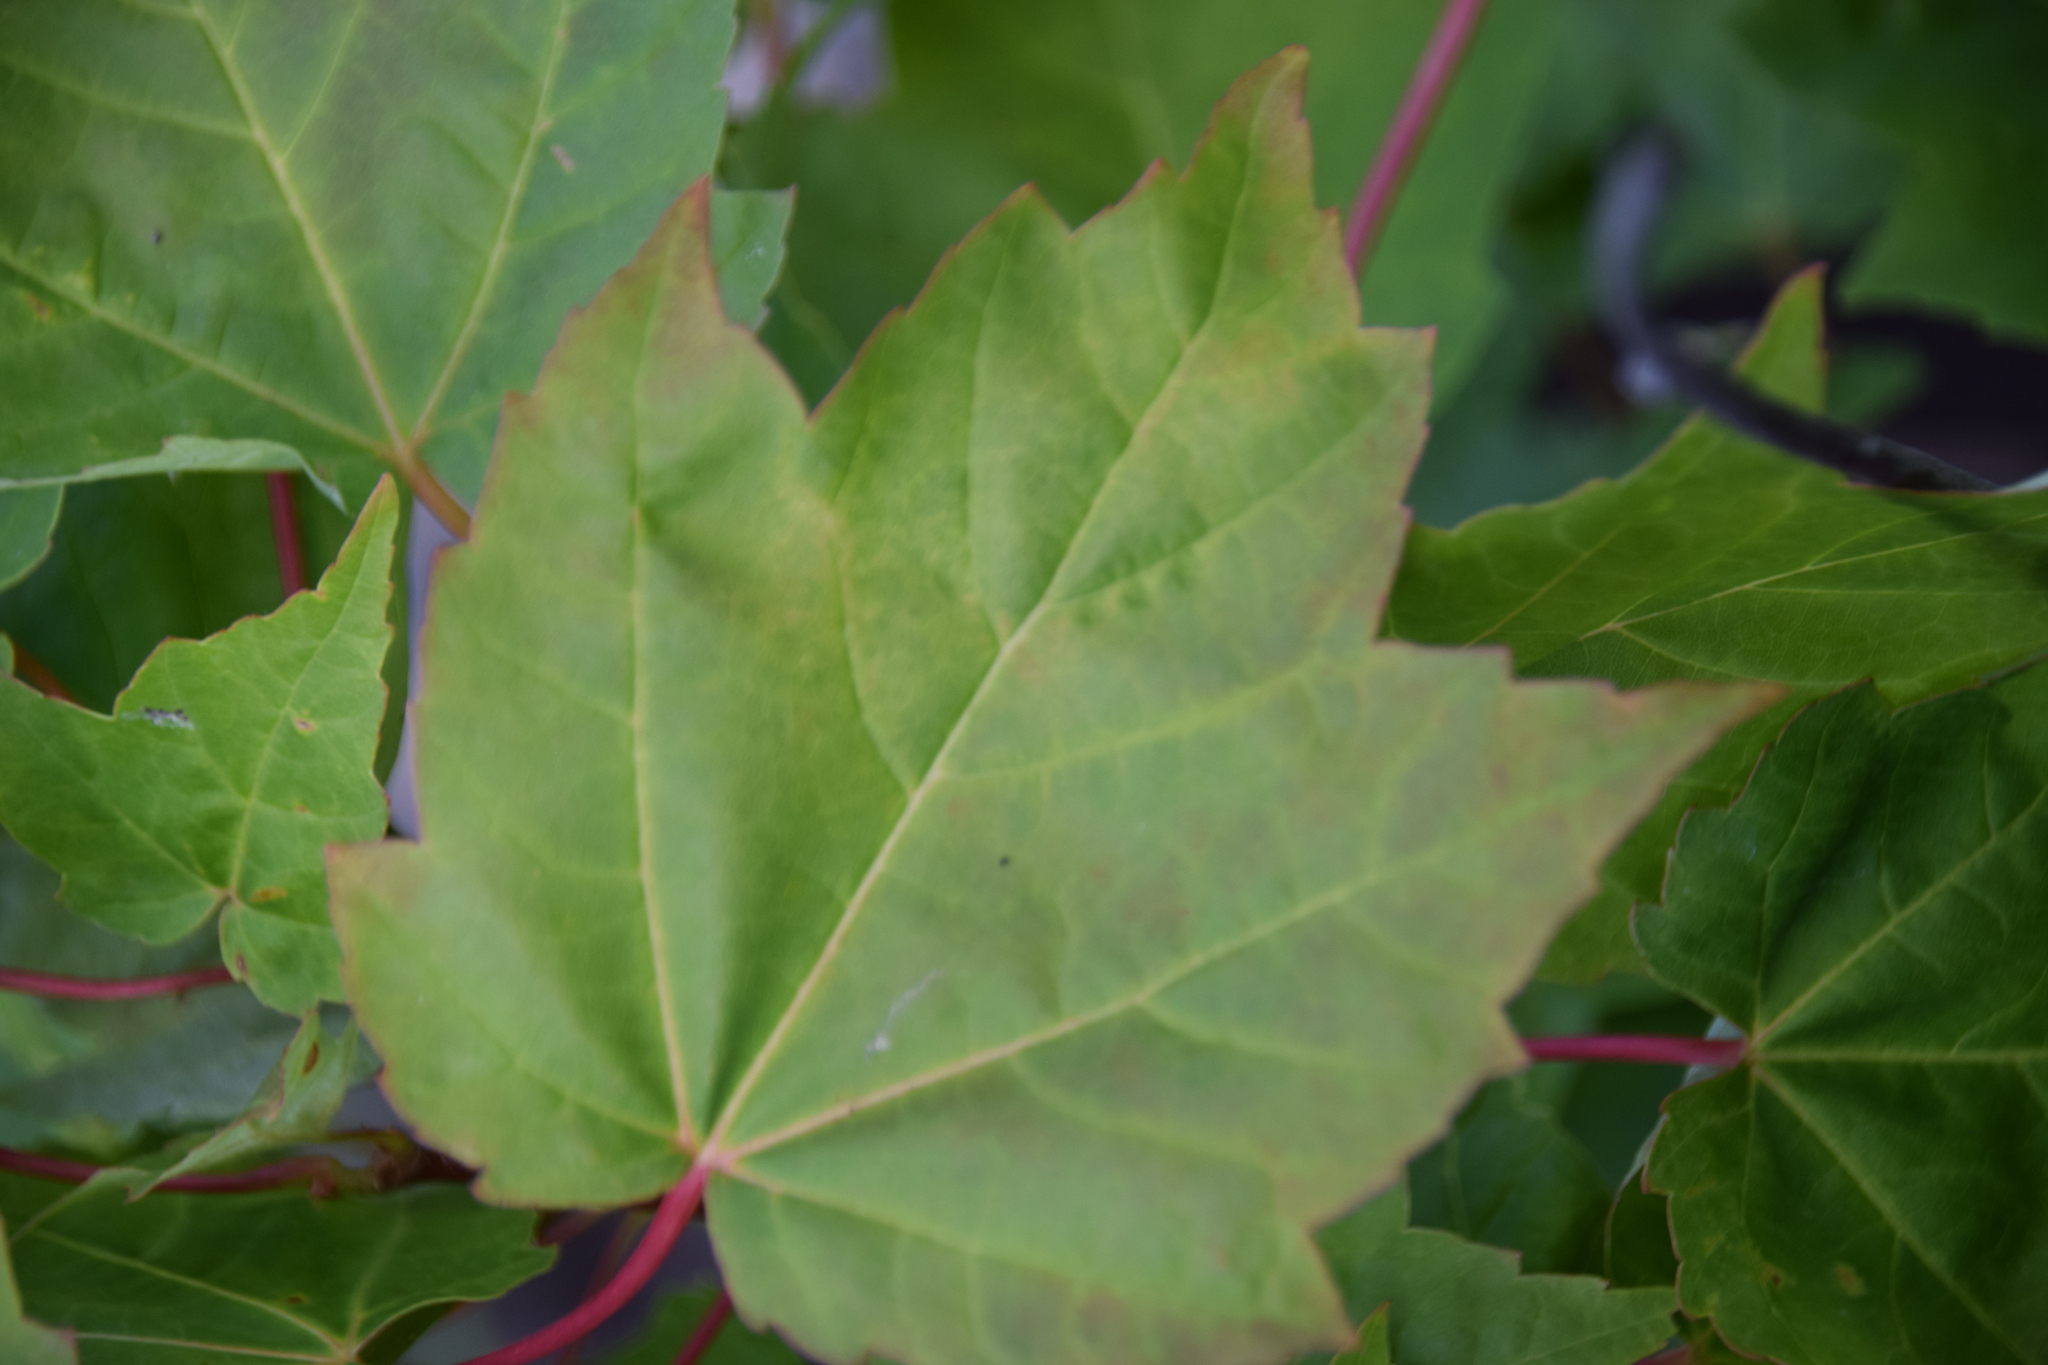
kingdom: Plantae
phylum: Tracheophyta
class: Magnoliopsida
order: Sapindales
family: Sapindaceae
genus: Acer
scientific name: Acer rubrum
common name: Red maple
